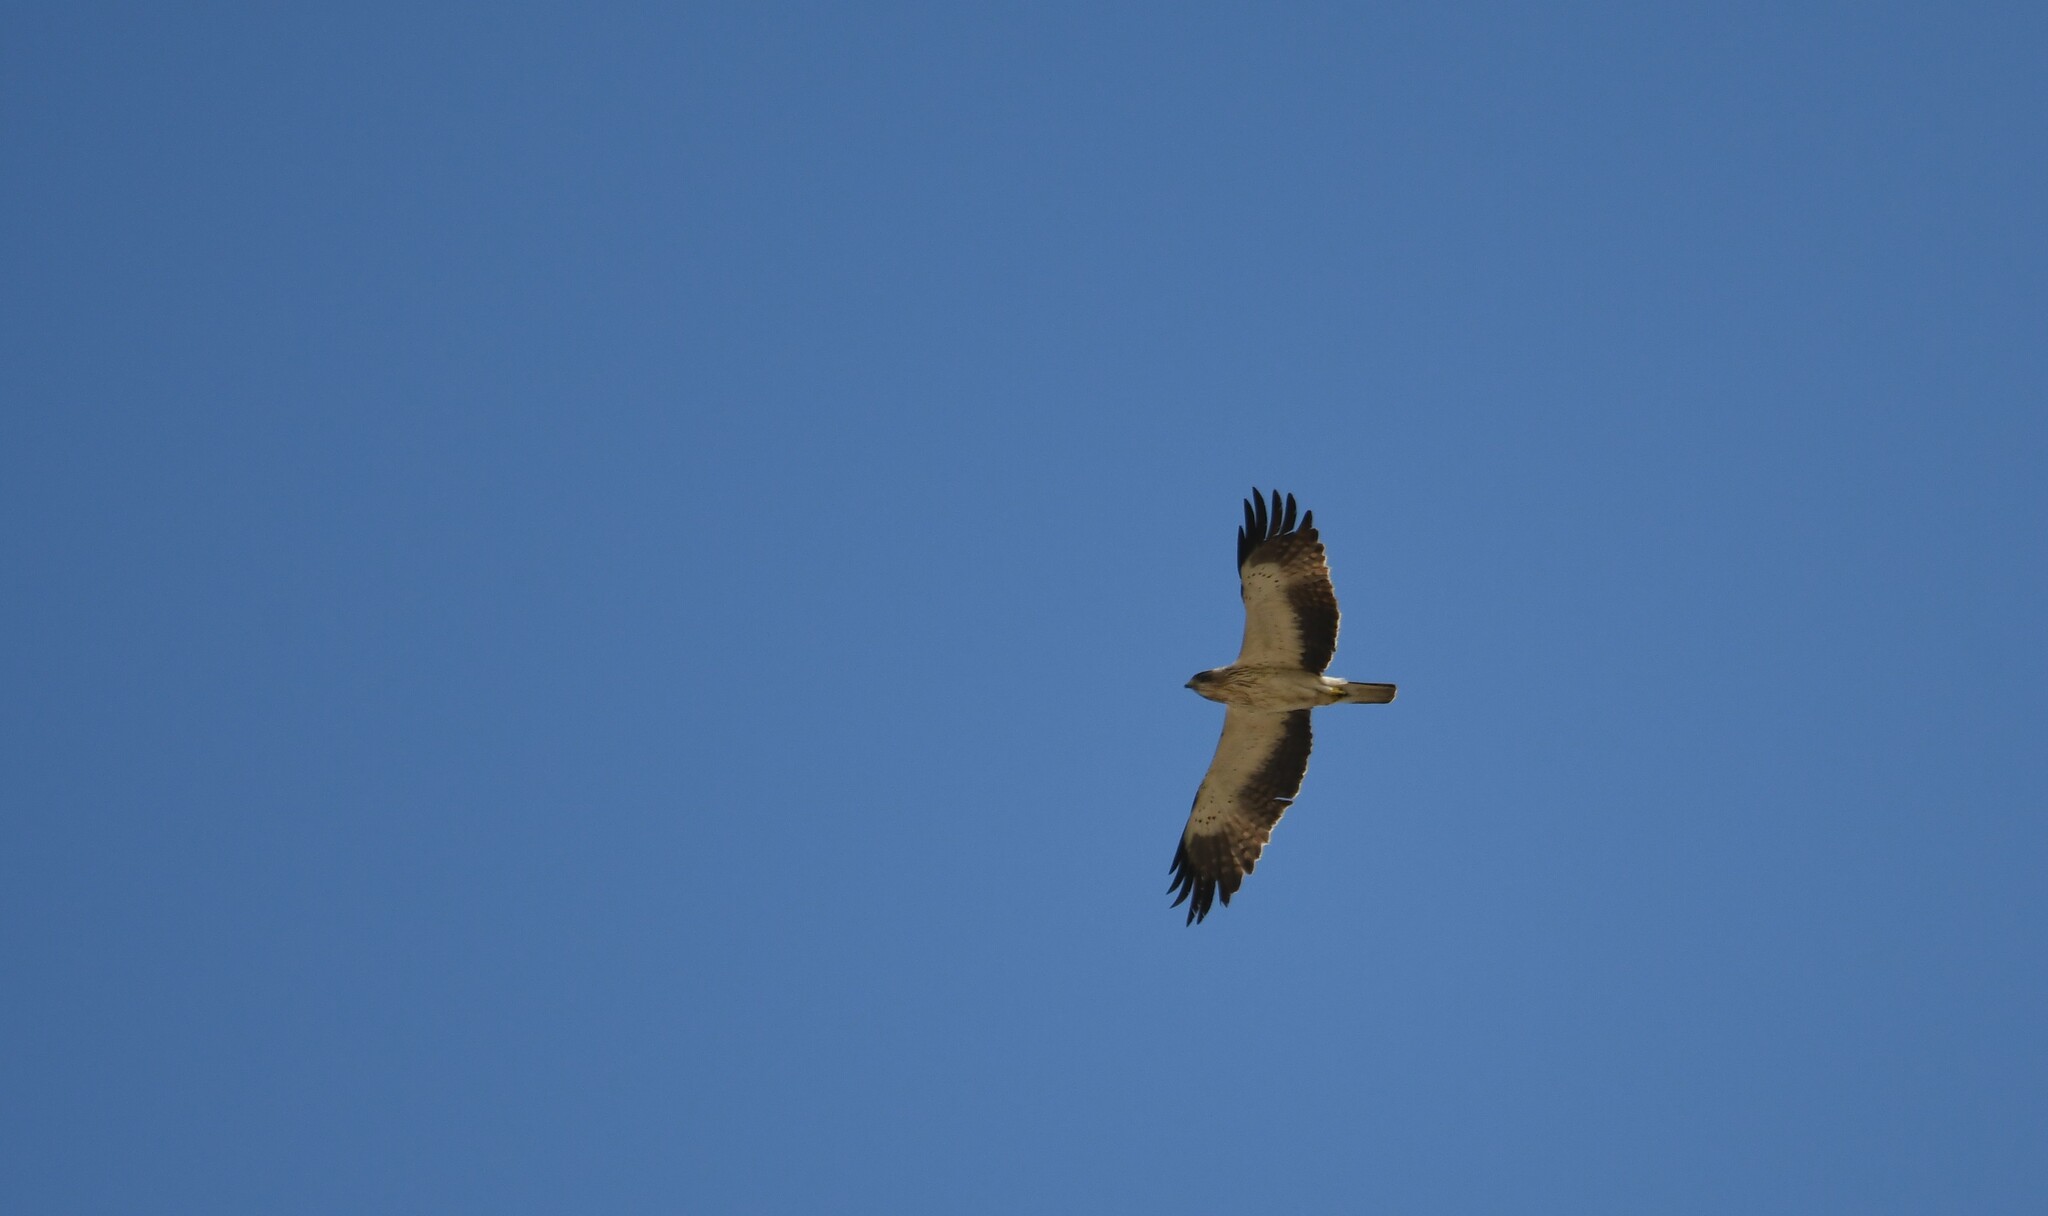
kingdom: Animalia
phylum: Chordata
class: Aves
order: Accipitriformes
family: Accipitridae
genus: Hieraaetus
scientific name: Hieraaetus pennatus
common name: Booted eagle
